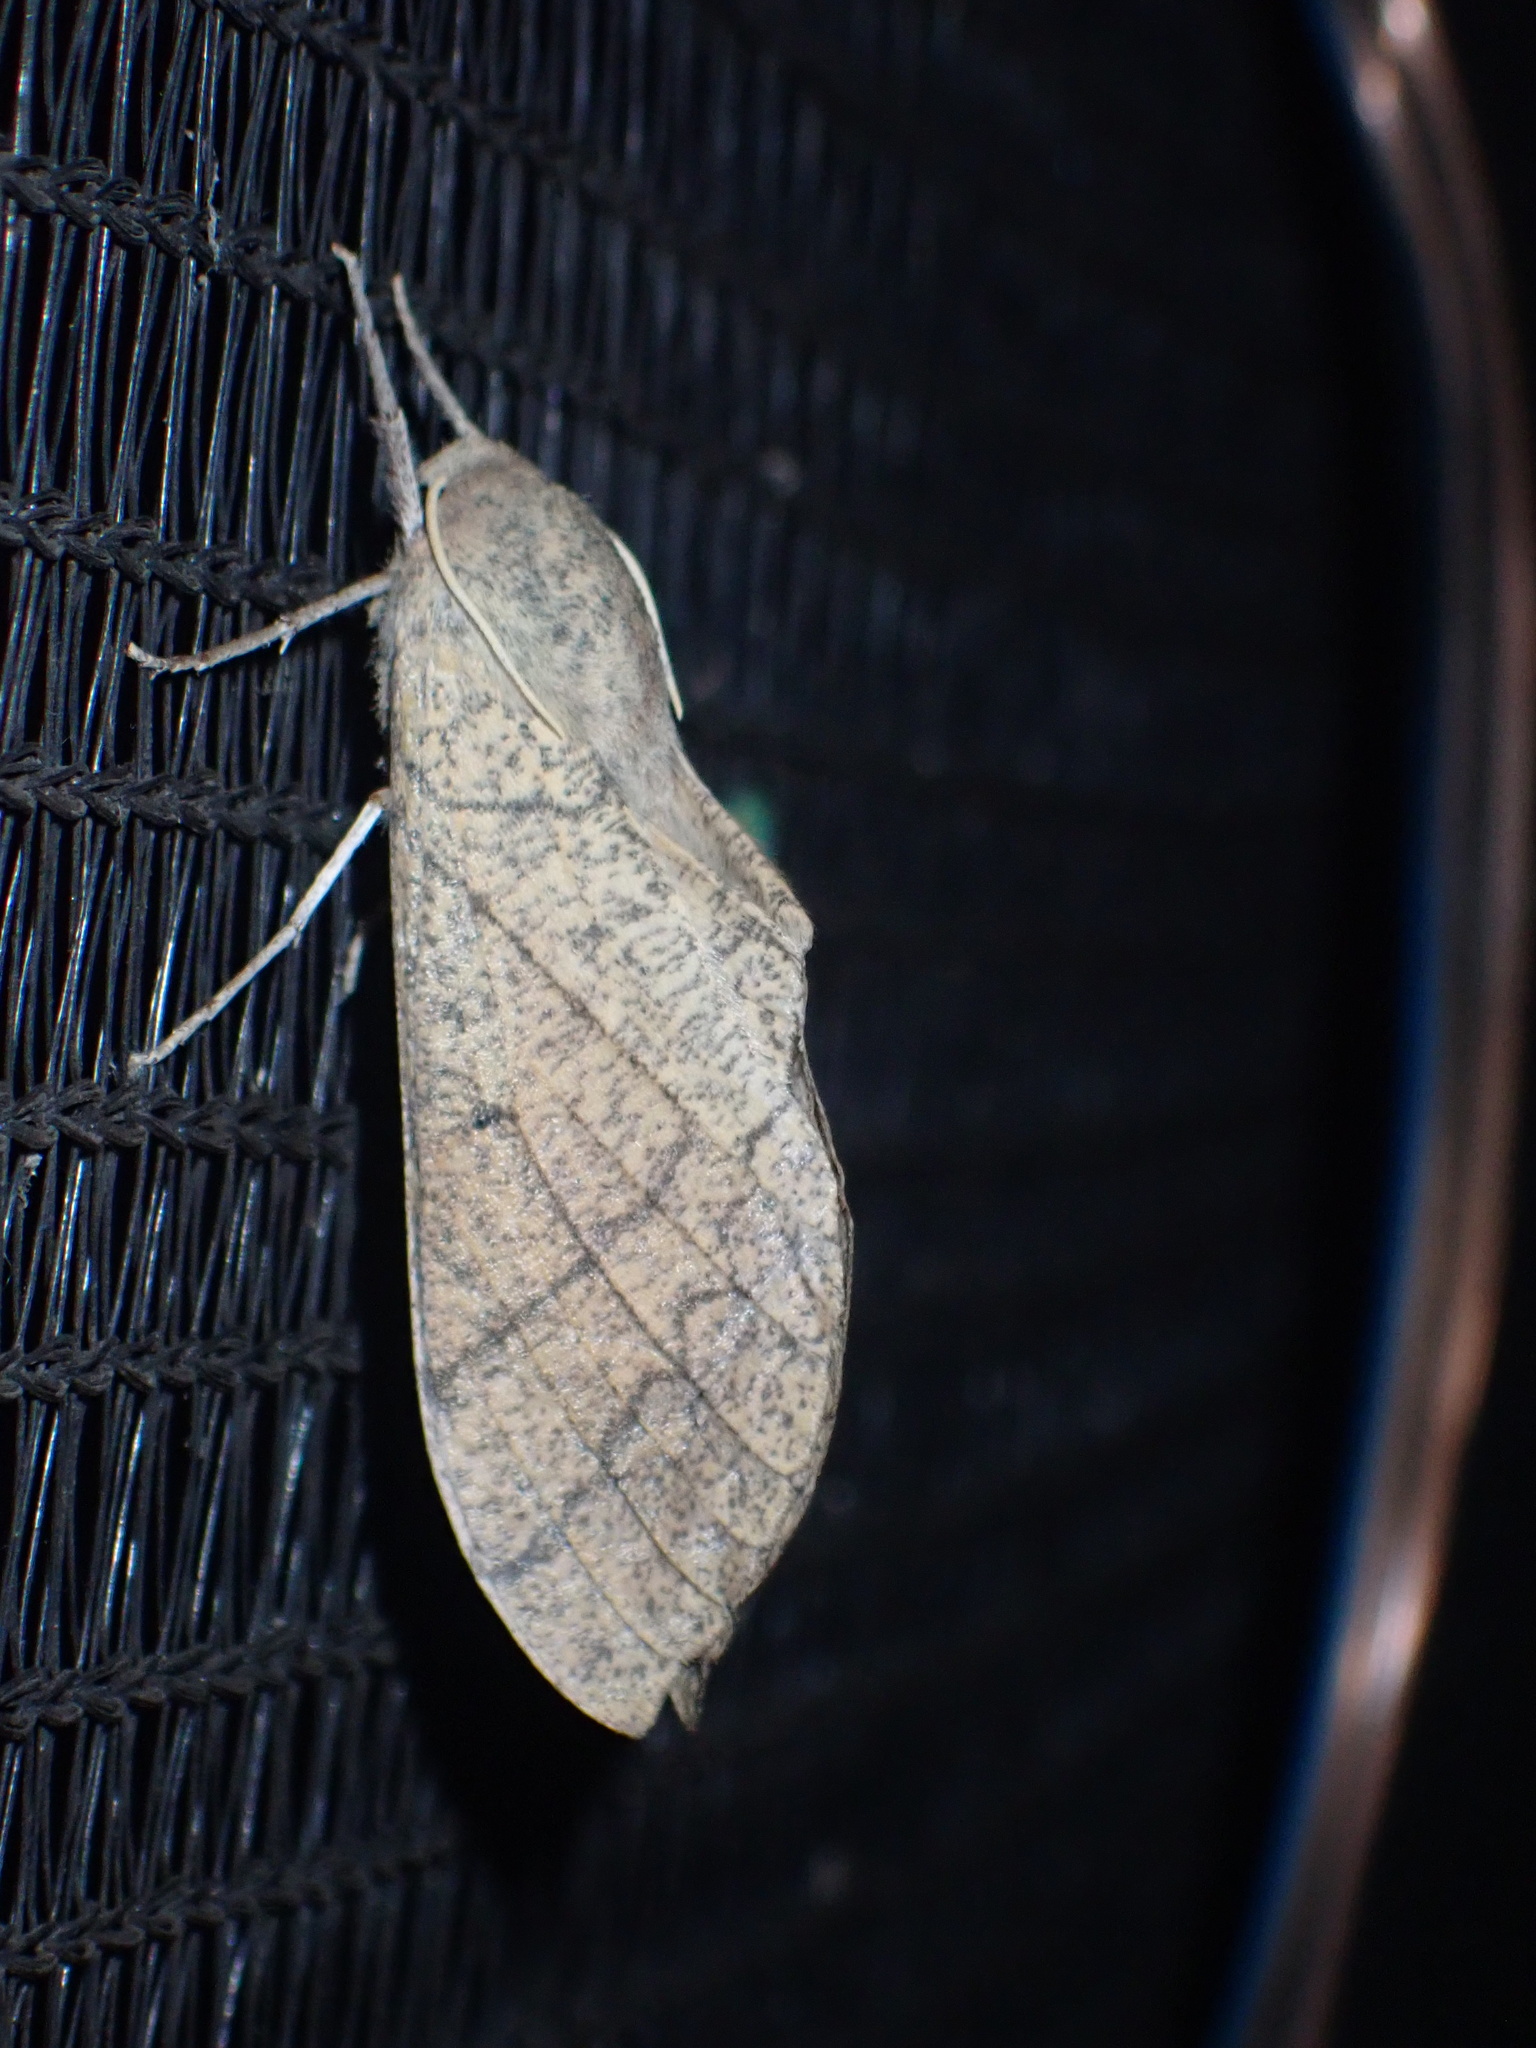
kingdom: Animalia
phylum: Arthropoda
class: Insecta
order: Lepidoptera
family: Sphingidae
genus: Neoclanis
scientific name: Neoclanis basalis
